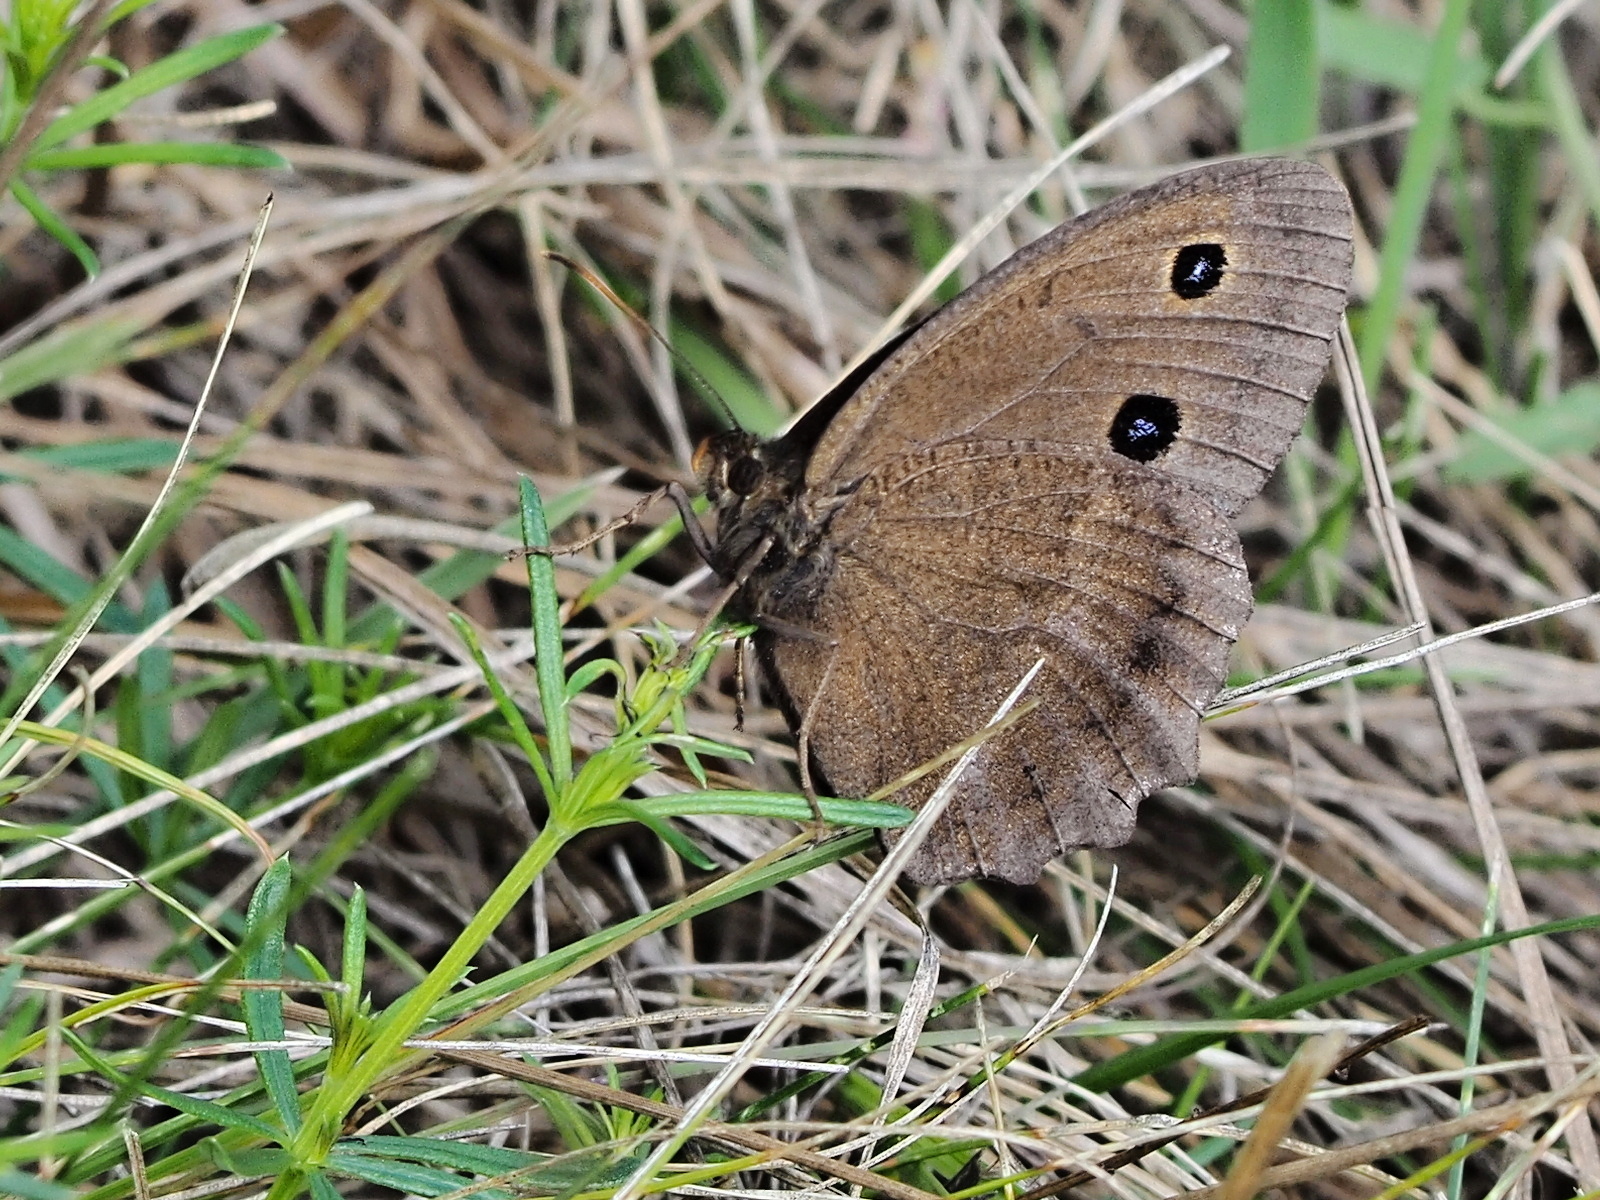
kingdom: Animalia
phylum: Arthropoda
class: Insecta
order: Lepidoptera
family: Nymphalidae
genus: Minois
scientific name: Minois dryas
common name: Dryad
